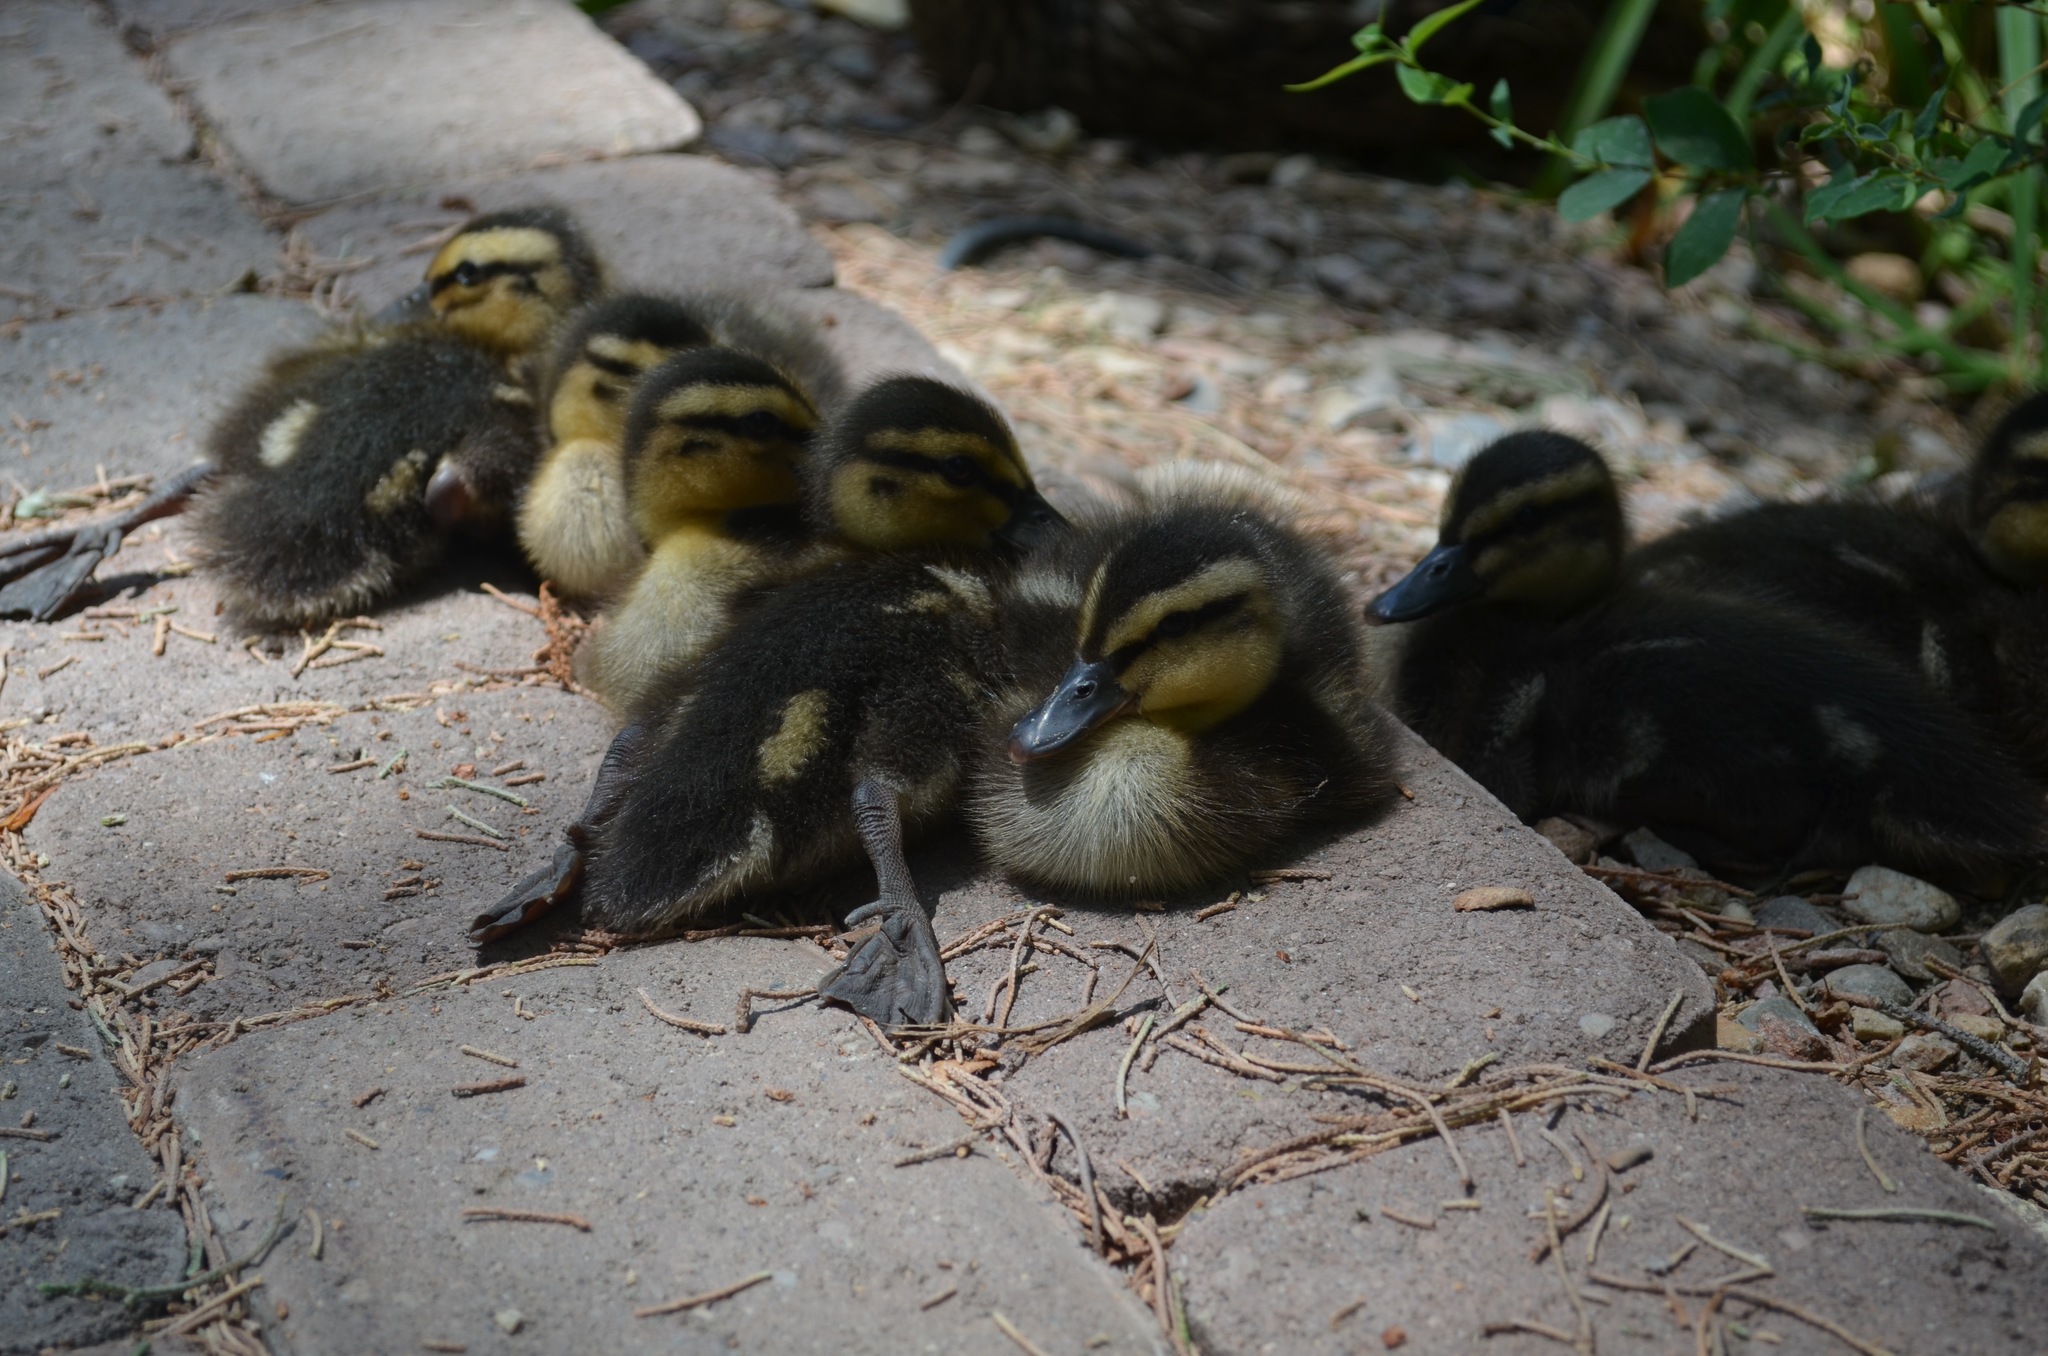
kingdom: Animalia
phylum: Chordata
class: Aves
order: Anseriformes
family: Anatidae
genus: Anas
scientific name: Anas platyrhynchos
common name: Mallard
